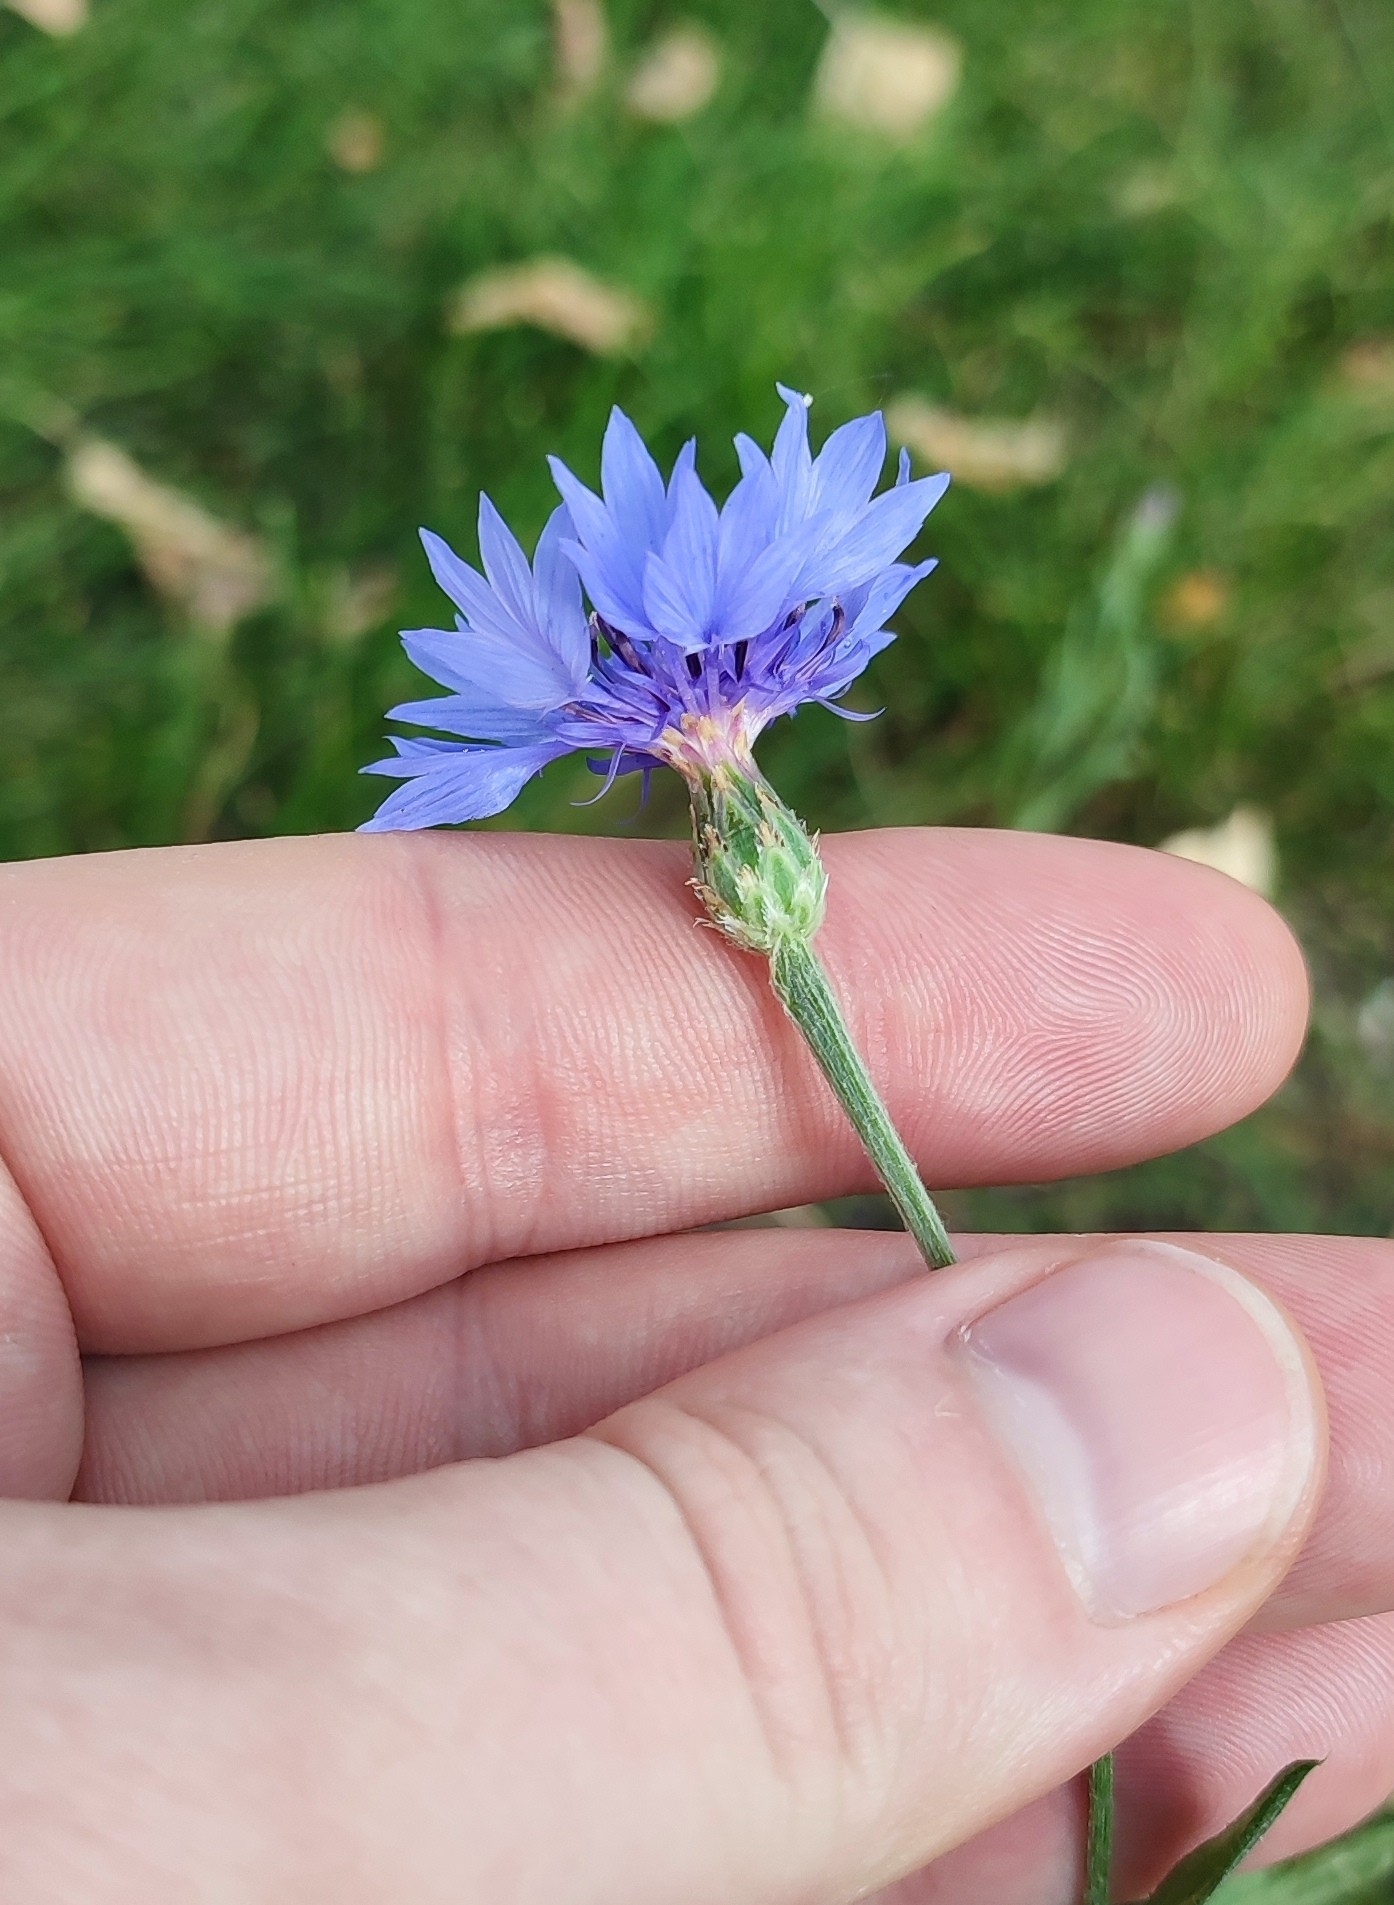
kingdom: Plantae
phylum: Tracheophyta
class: Magnoliopsida
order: Asterales
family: Asteraceae
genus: Centaurea
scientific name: Centaurea cyanus
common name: Cornflower
